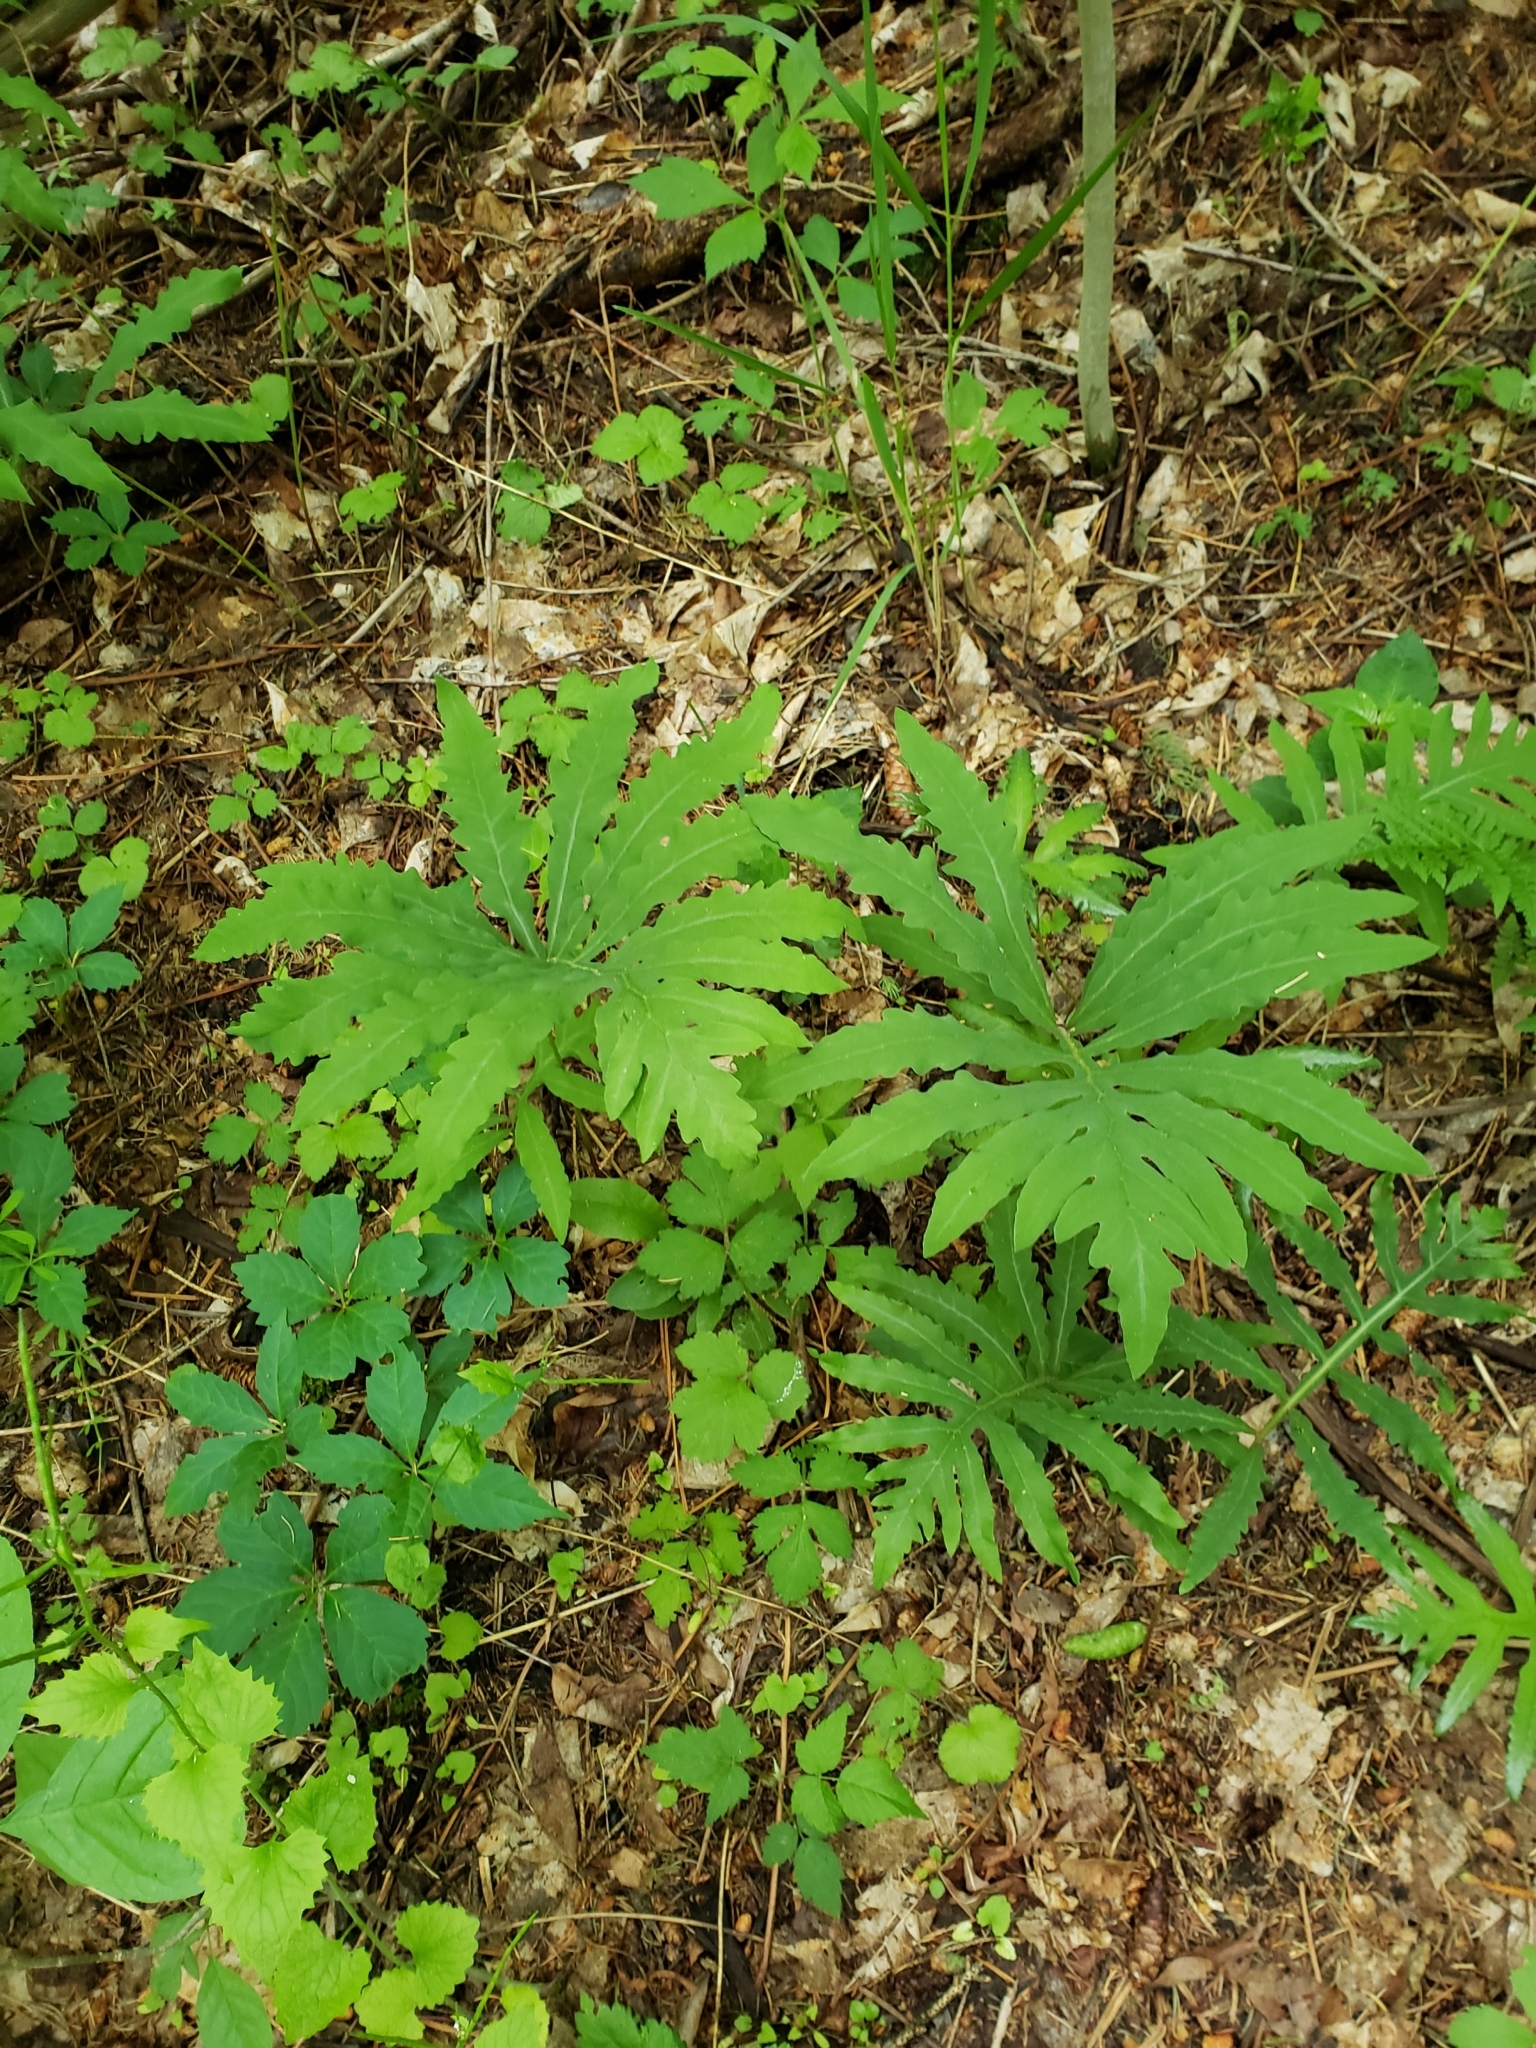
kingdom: Plantae
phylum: Tracheophyta
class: Polypodiopsida
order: Polypodiales
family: Onocleaceae
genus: Onoclea
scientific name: Onoclea sensibilis
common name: Sensitive fern
